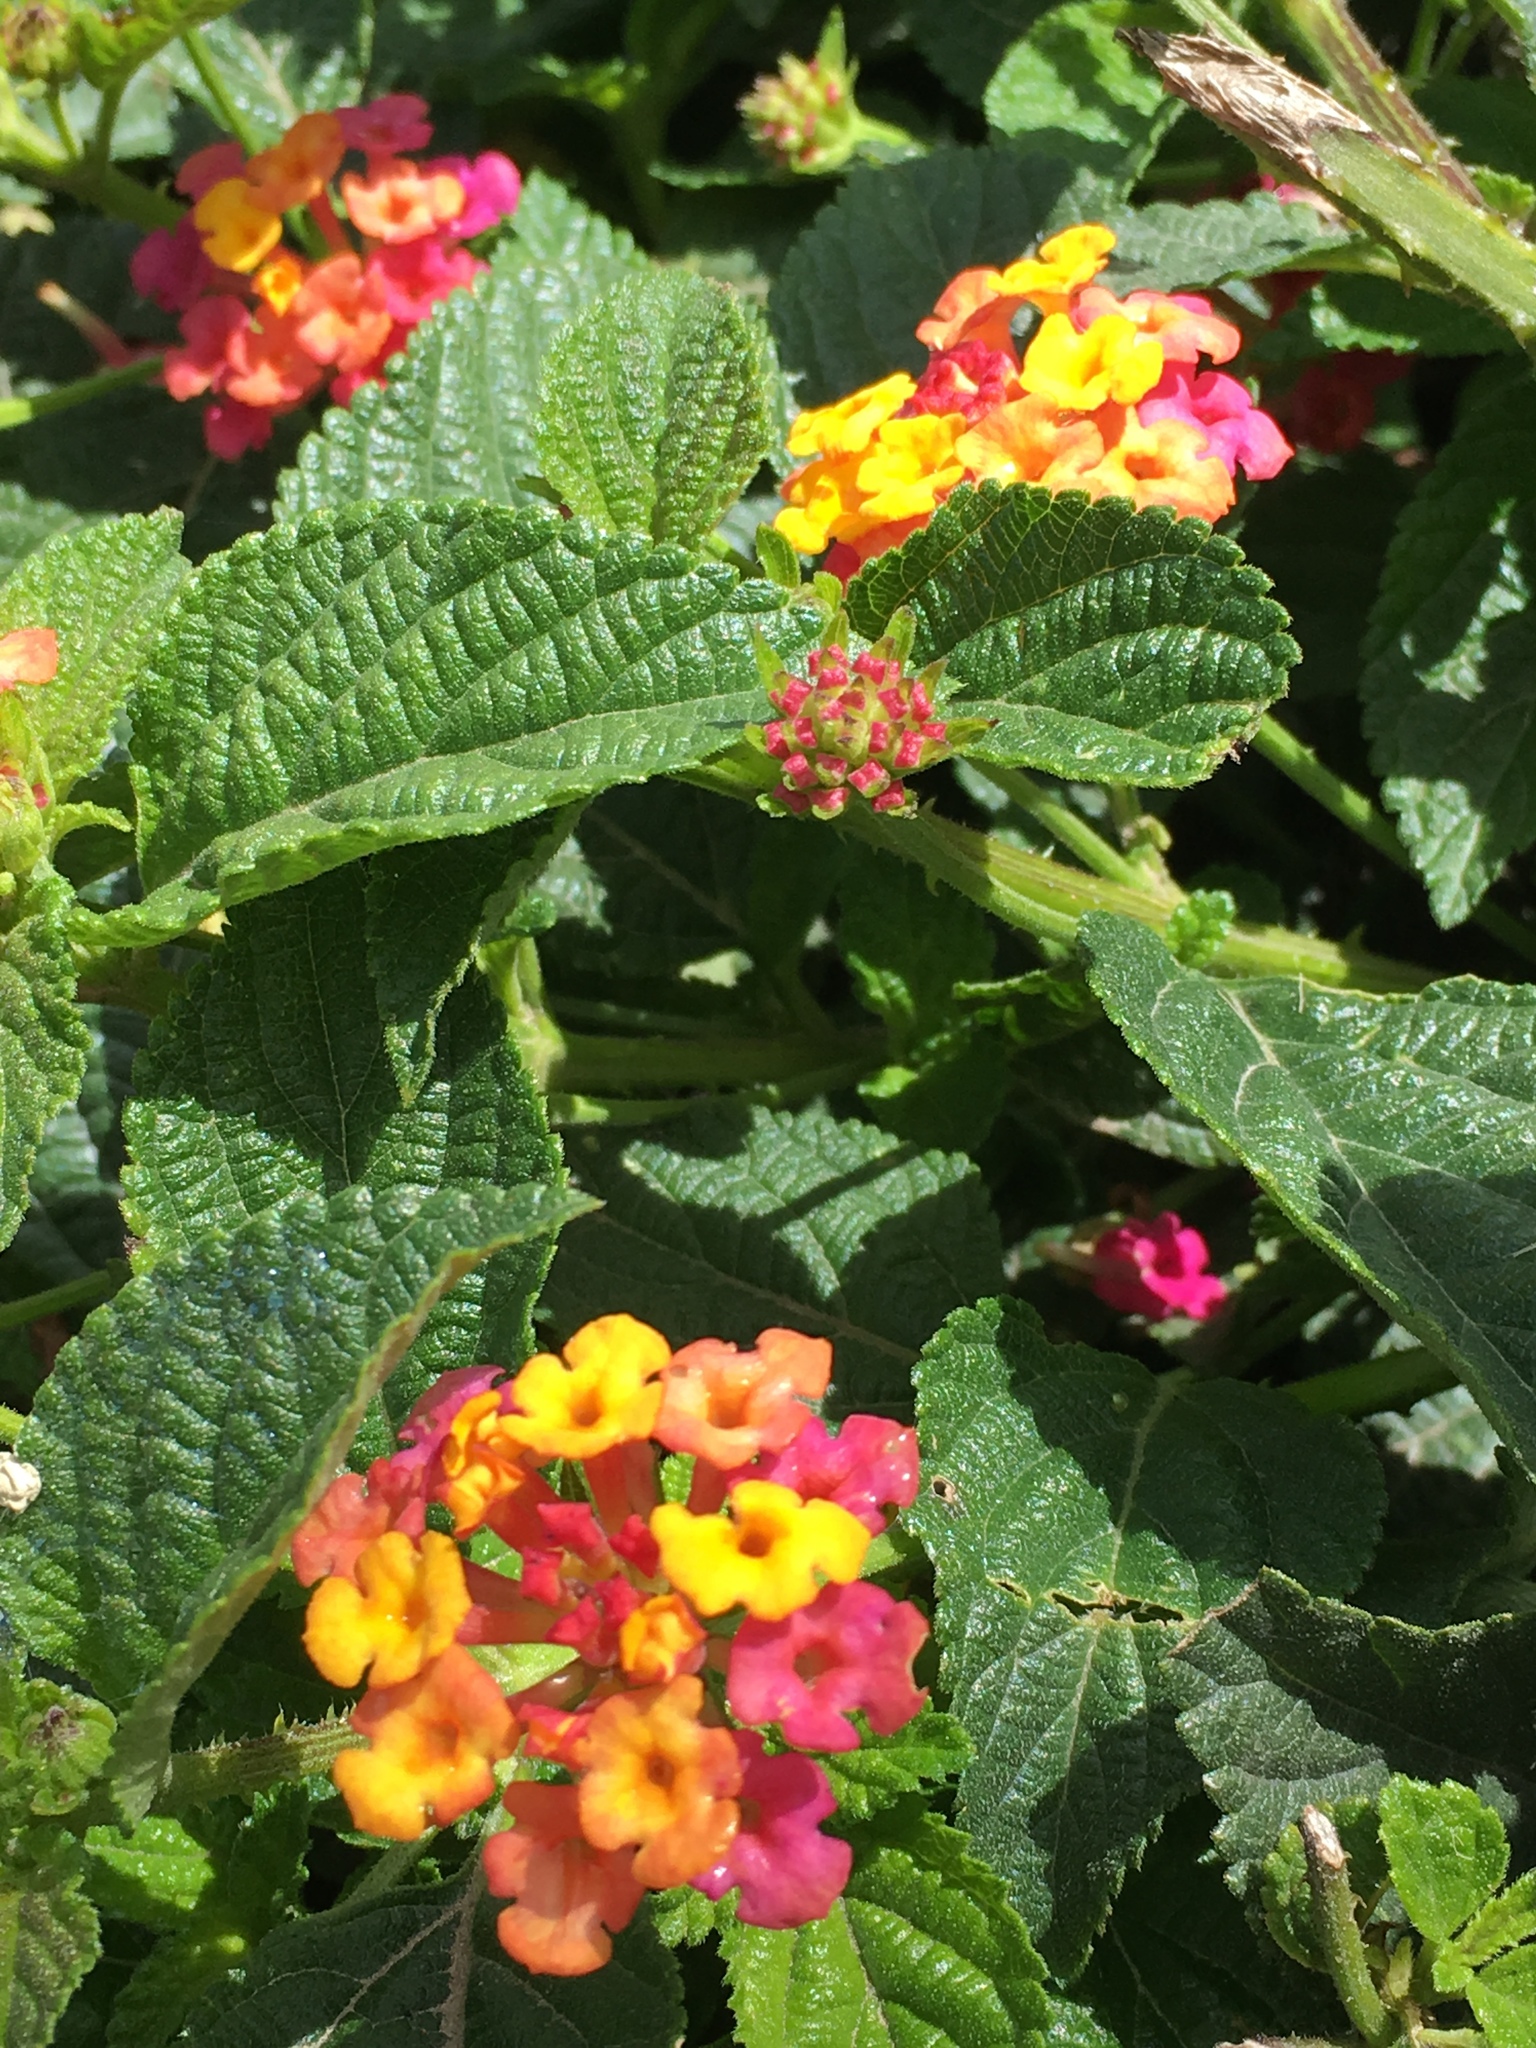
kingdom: Plantae
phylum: Tracheophyta
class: Magnoliopsida
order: Lamiales
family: Verbenaceae
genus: Lantana
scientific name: Lantana camara
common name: Lantana
